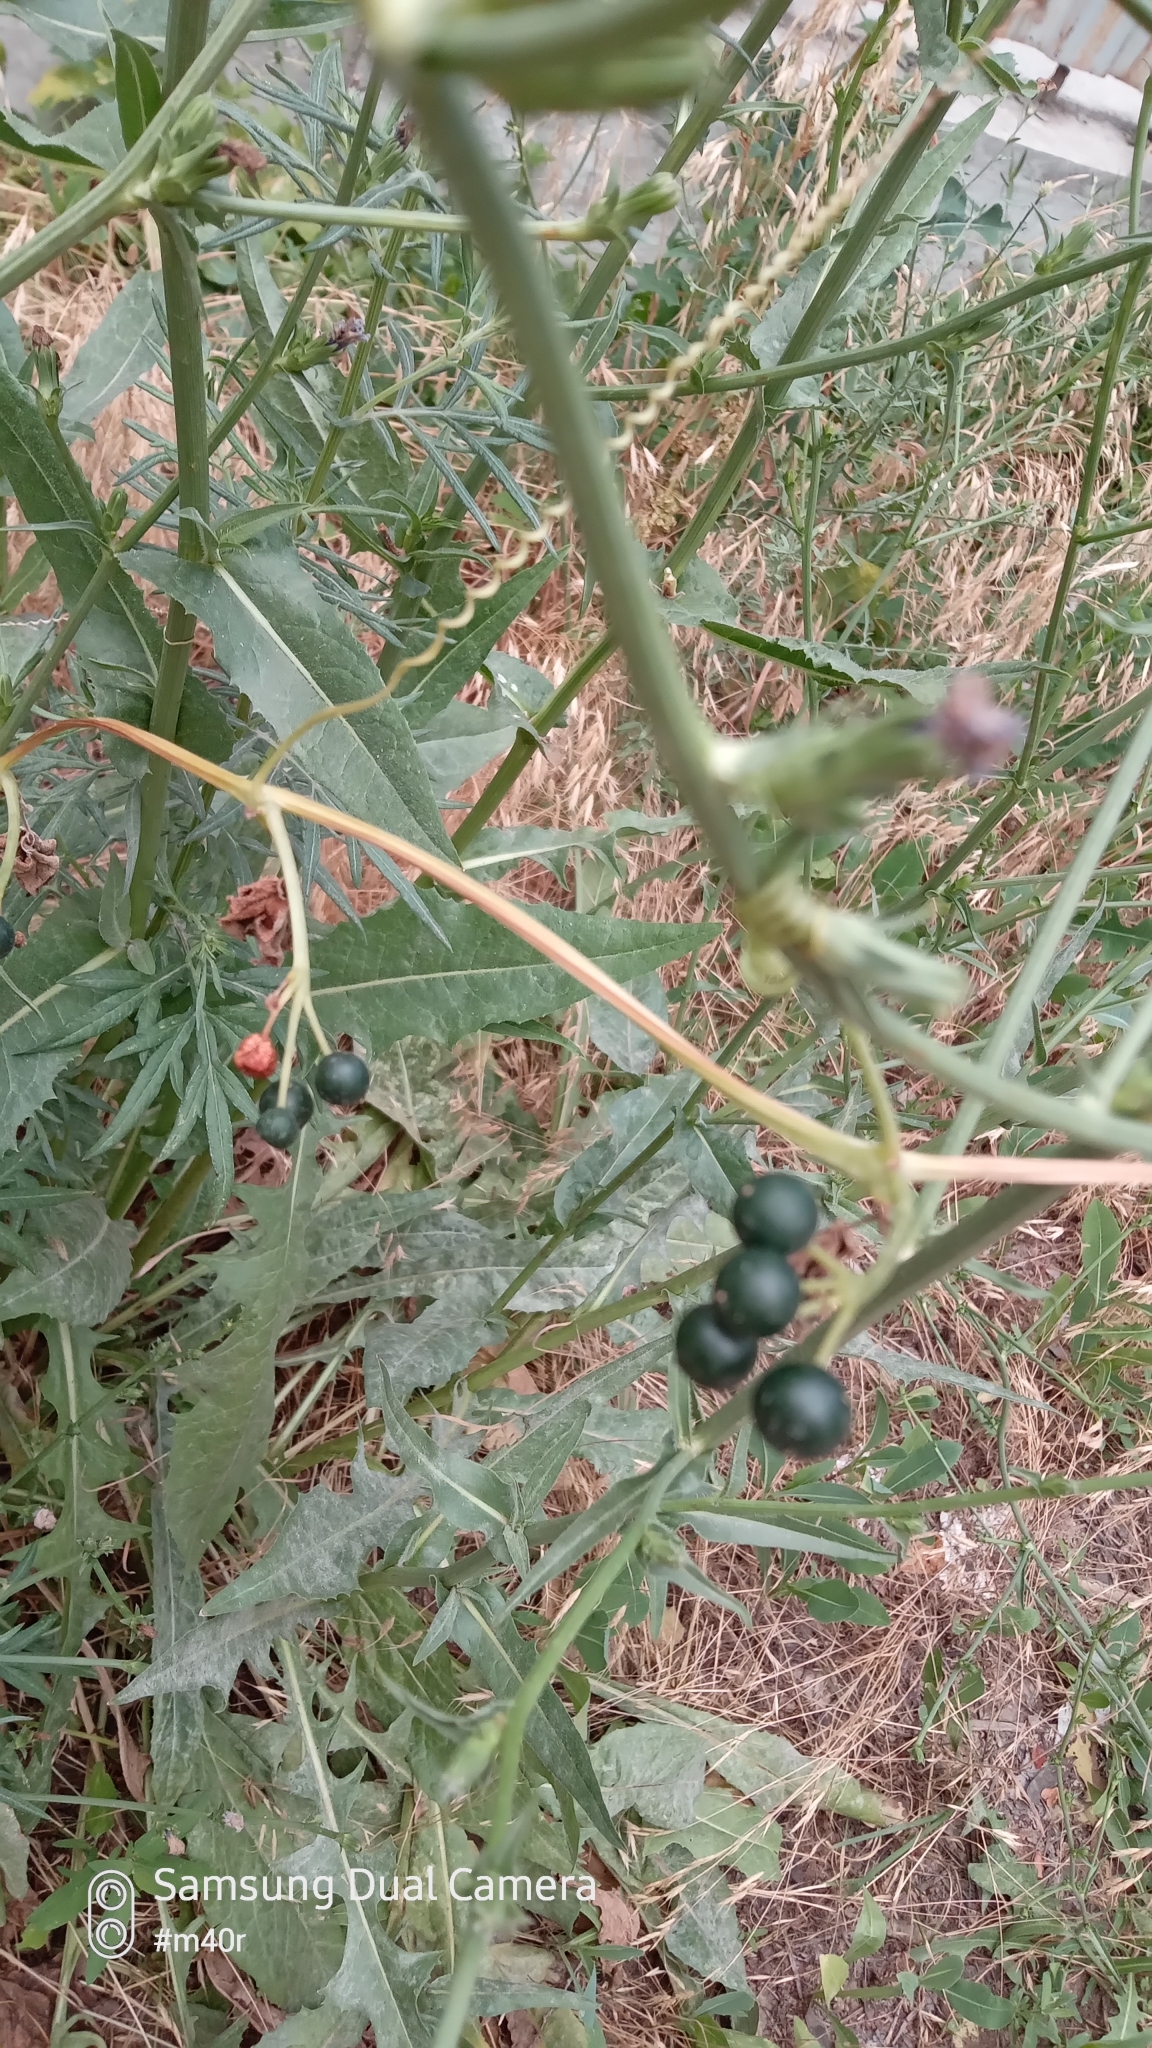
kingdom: Plantae
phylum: Tracheophyta
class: Magnoliopsida
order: Cucurbitales
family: Cucurbitaceae
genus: Bryonia
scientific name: Bryonia alba
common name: White bryony
